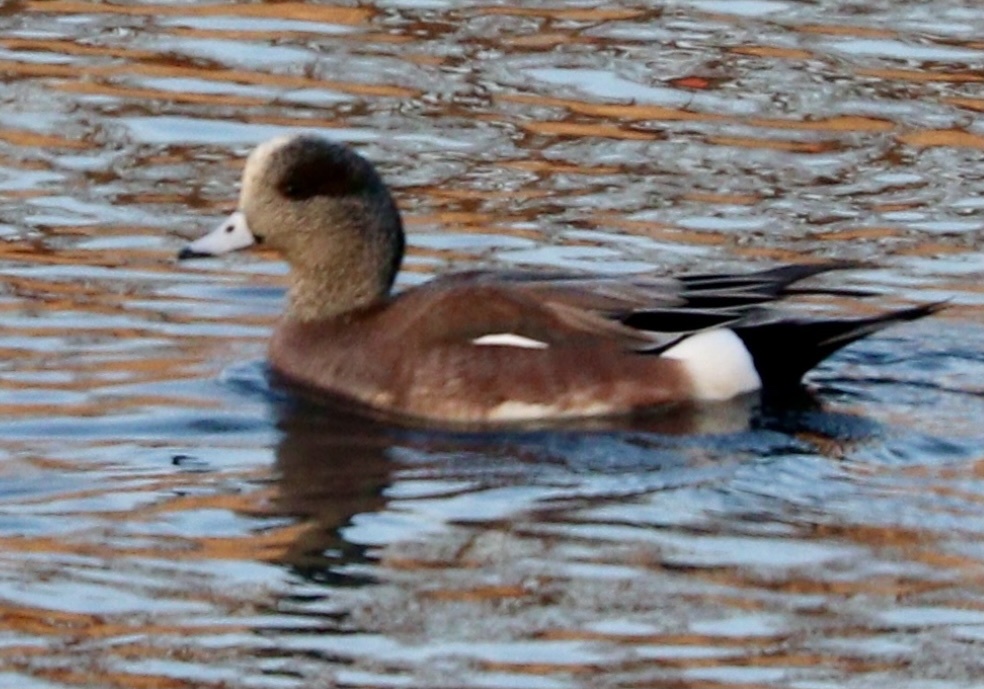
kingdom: Animalia
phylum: Chordata
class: Aves
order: Anseriformes
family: Anatidae
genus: Mareca
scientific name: Mareca americana
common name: American wigeon
